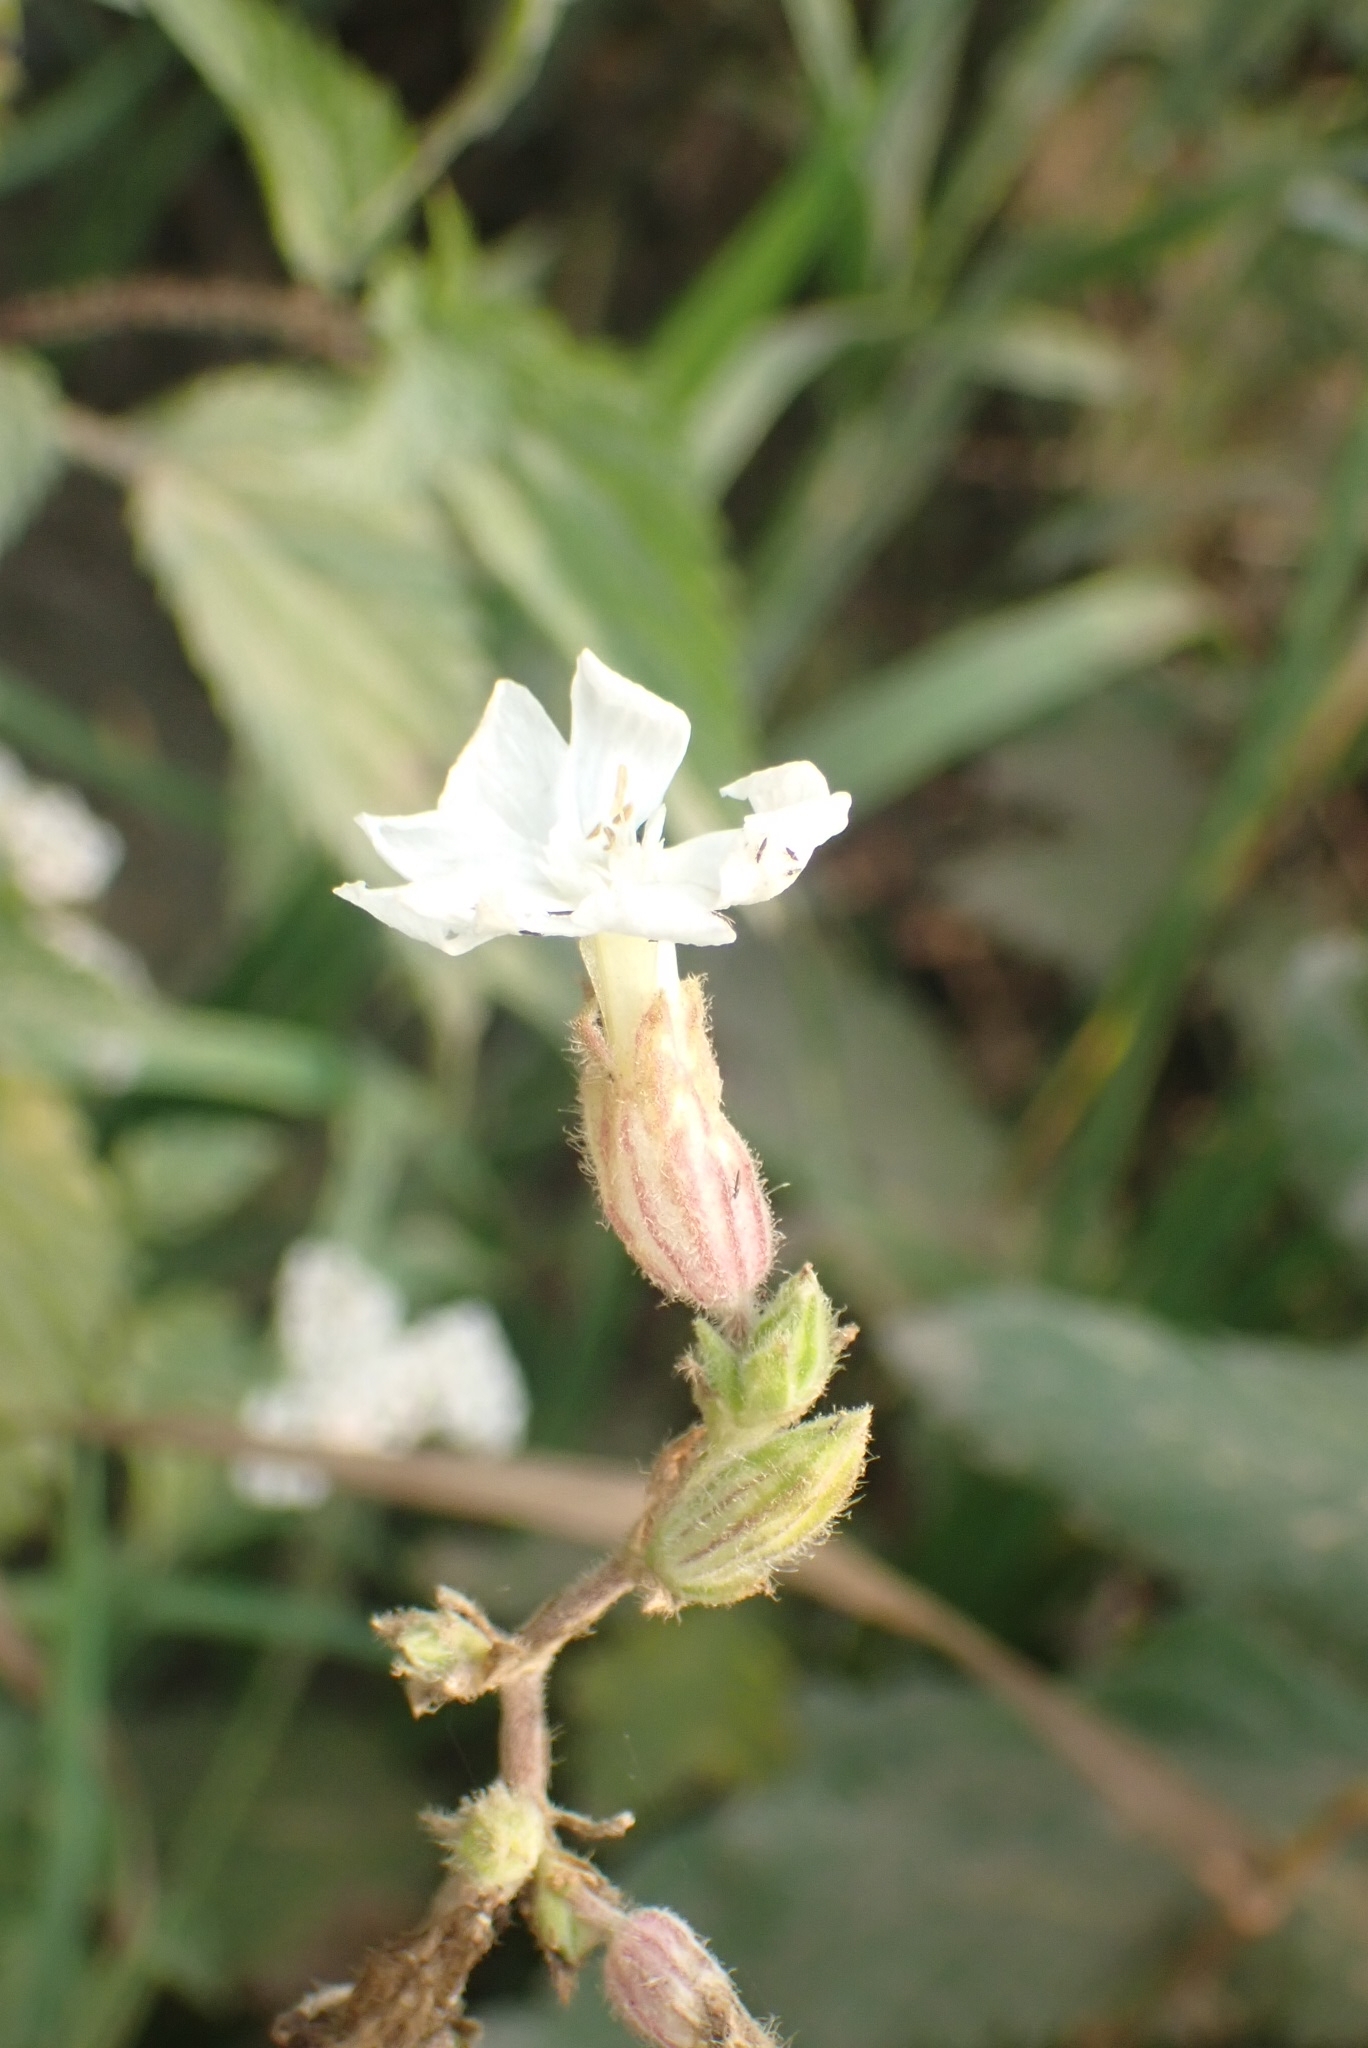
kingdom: Plantae
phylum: Tracheophyta
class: Magnoliopsida
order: Caryophyllales
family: Caryophyllaceae
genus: Silene
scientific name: Silene latifolia
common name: White campion
